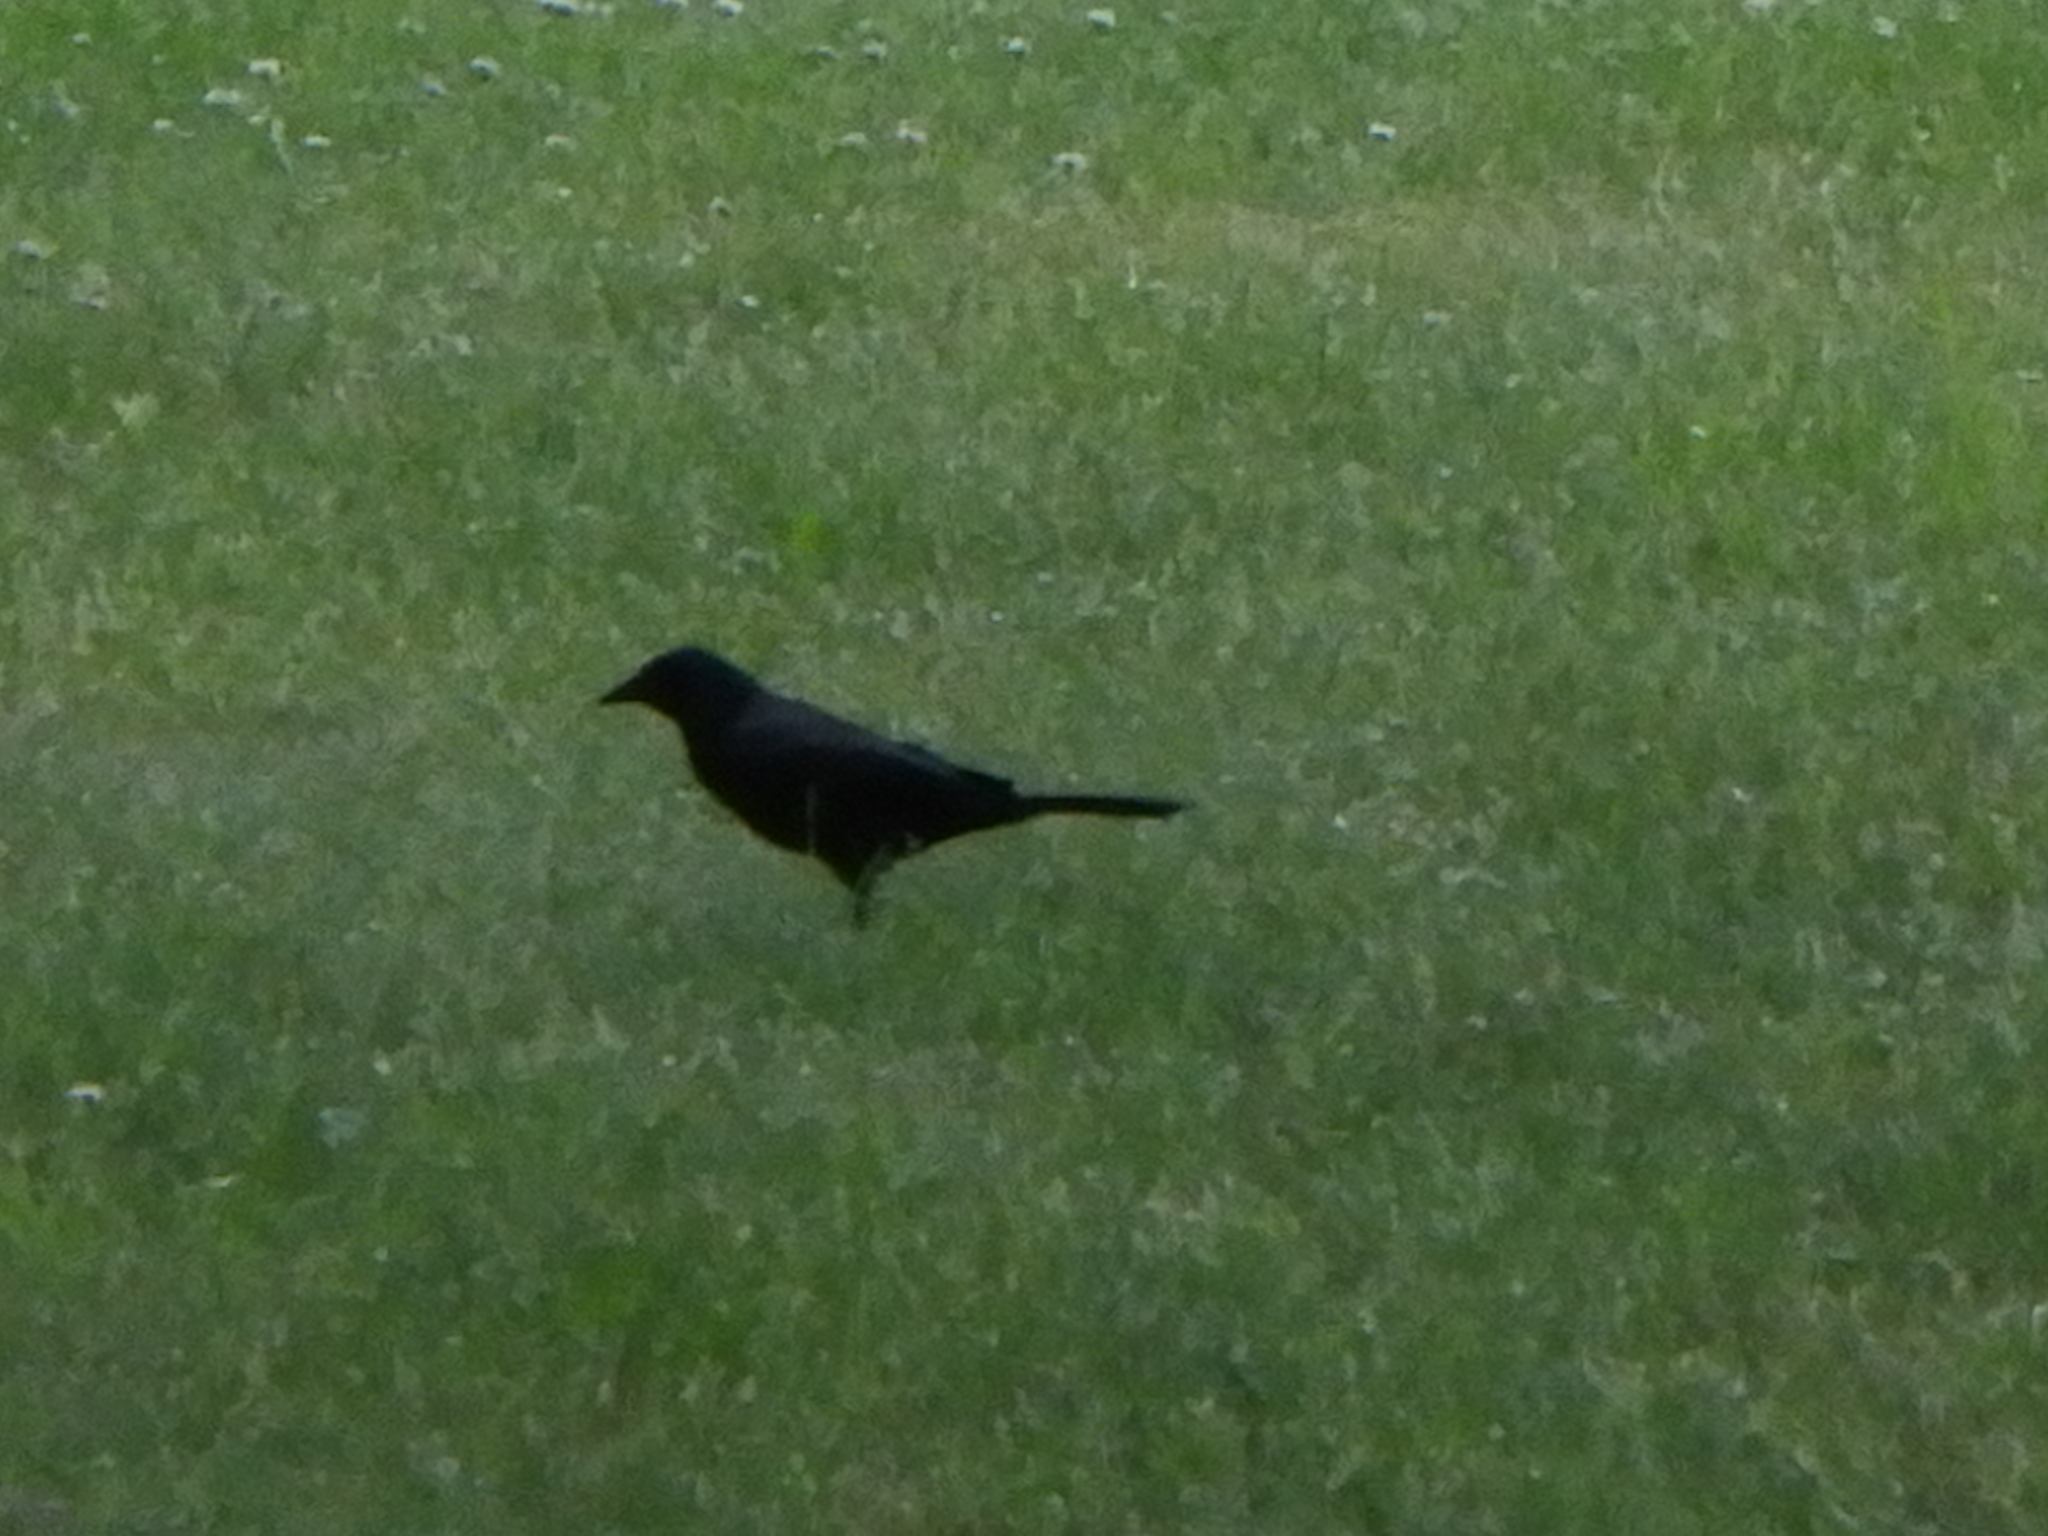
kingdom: Animalia
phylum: Chordata
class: Aves
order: Passeriformes
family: Icteridae
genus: Quiscalus
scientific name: Quiscalus quiscula
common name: Common grackle
